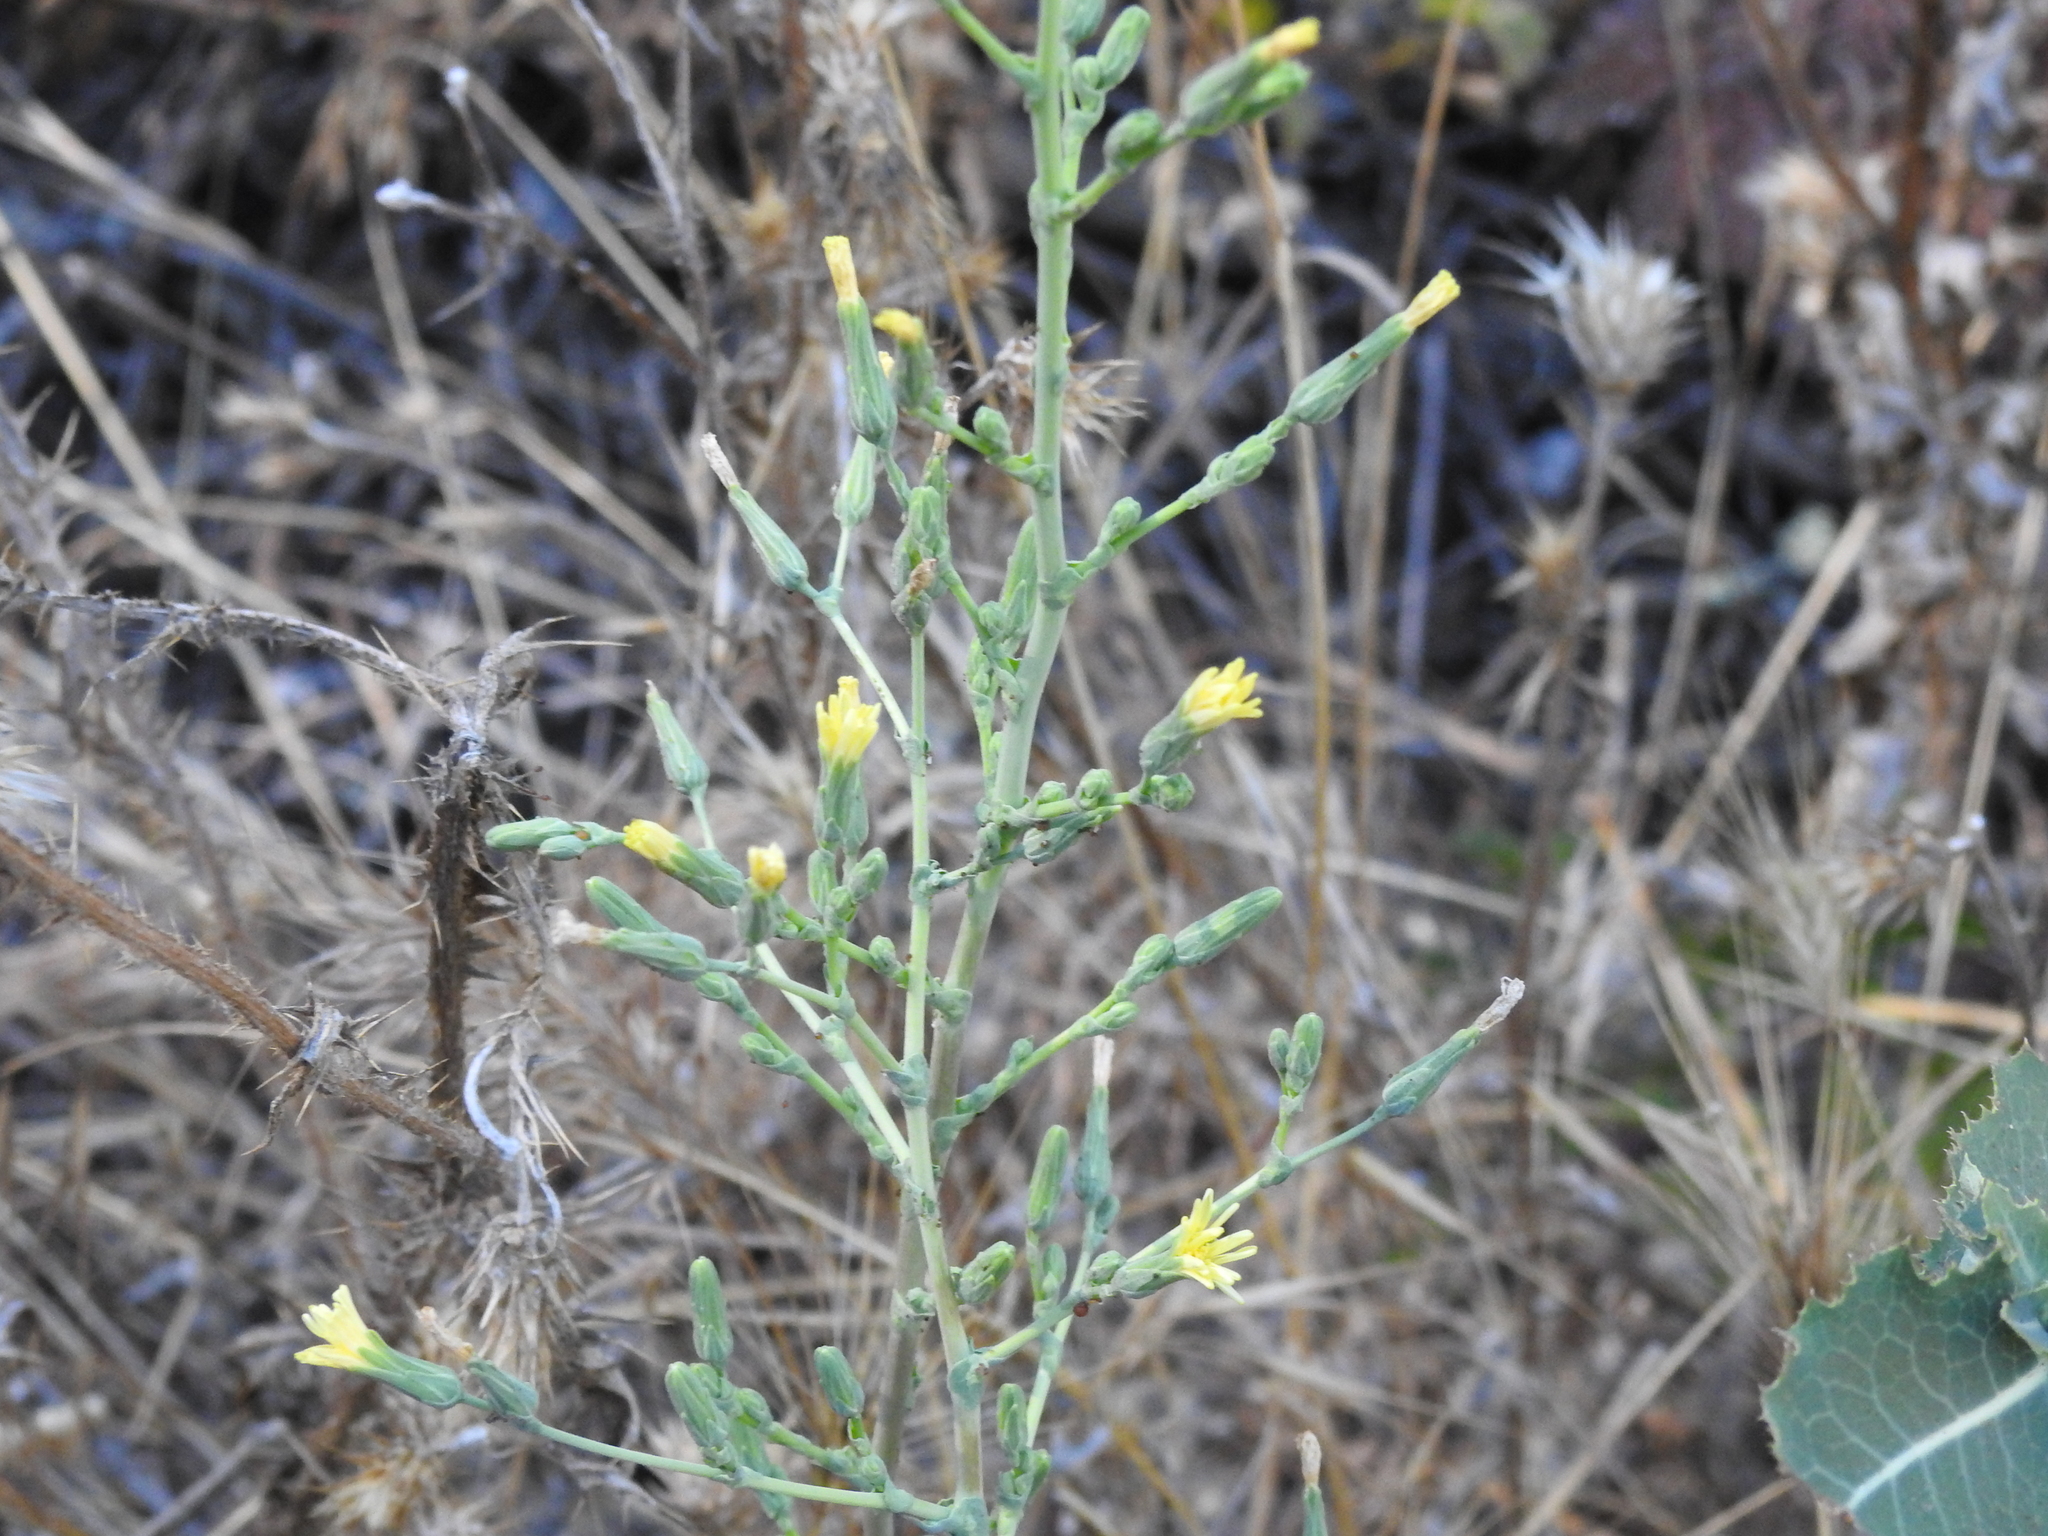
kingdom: Plantae
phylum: Tracheophyta
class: Magnoliopsida
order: Asterales
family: Asteraceae
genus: Lactuca
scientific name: Lactuca
